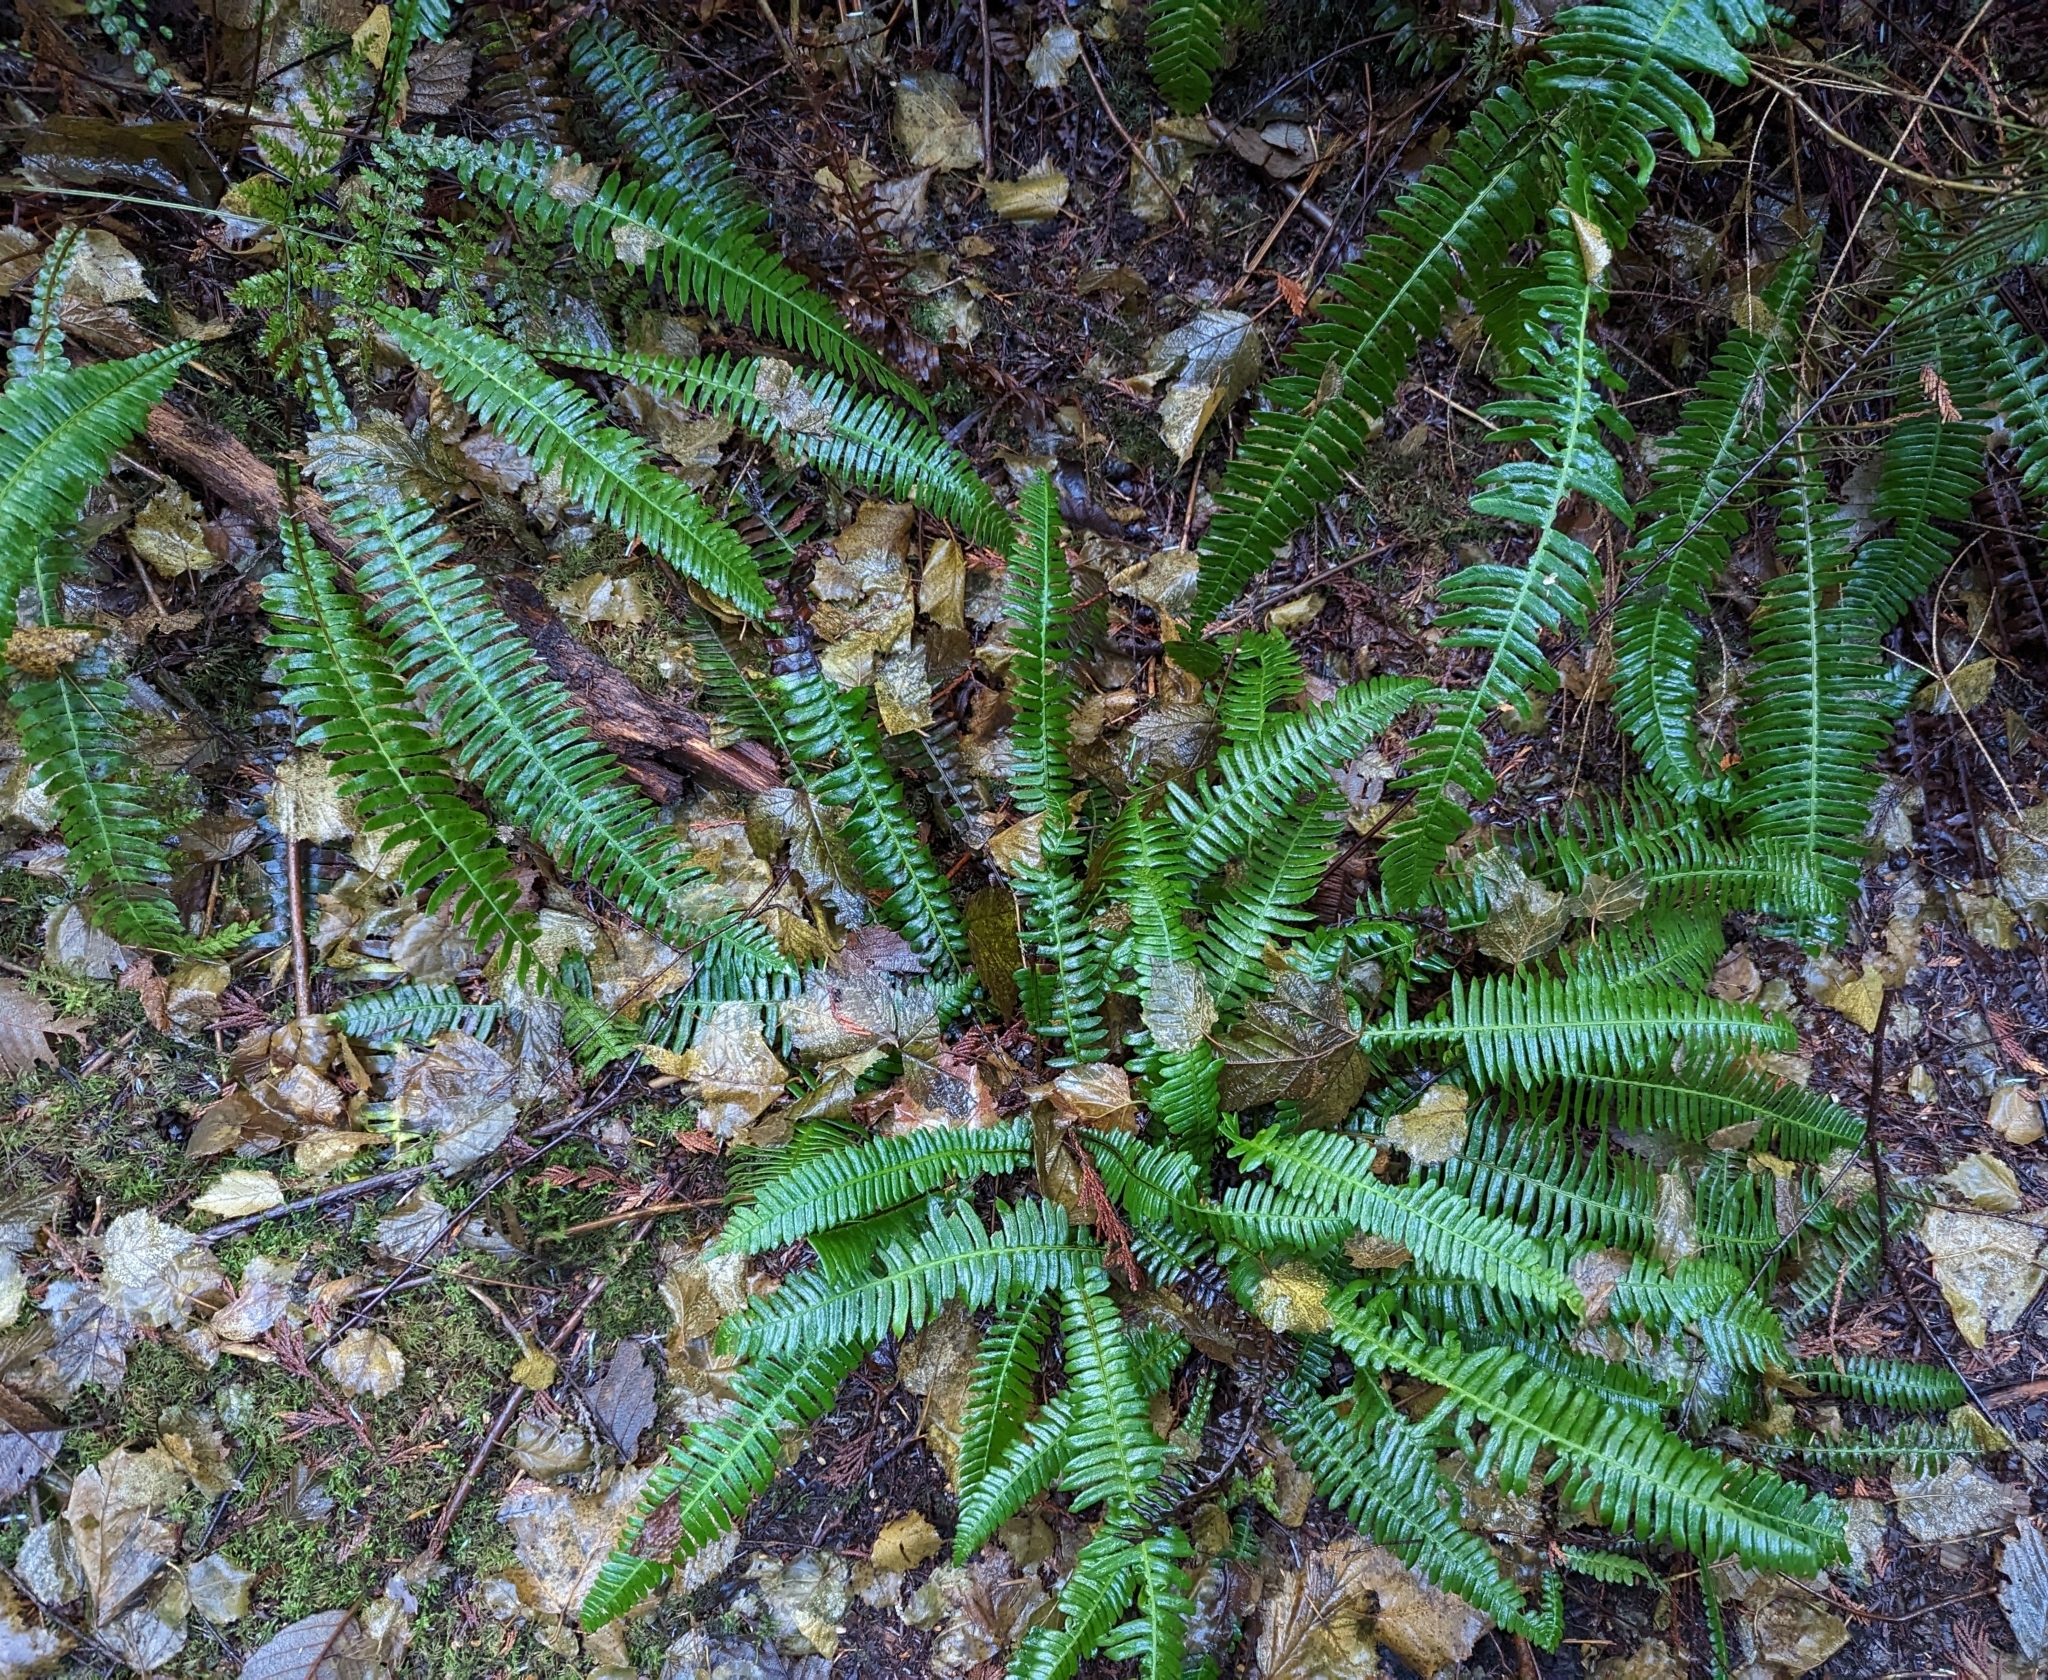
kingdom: Plantae
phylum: Tracheophyta
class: Polypodiopsida
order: Polypodiales
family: Blechnaceae
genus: Struthiopteris
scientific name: Struthiopteris spicant
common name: Deer fern
